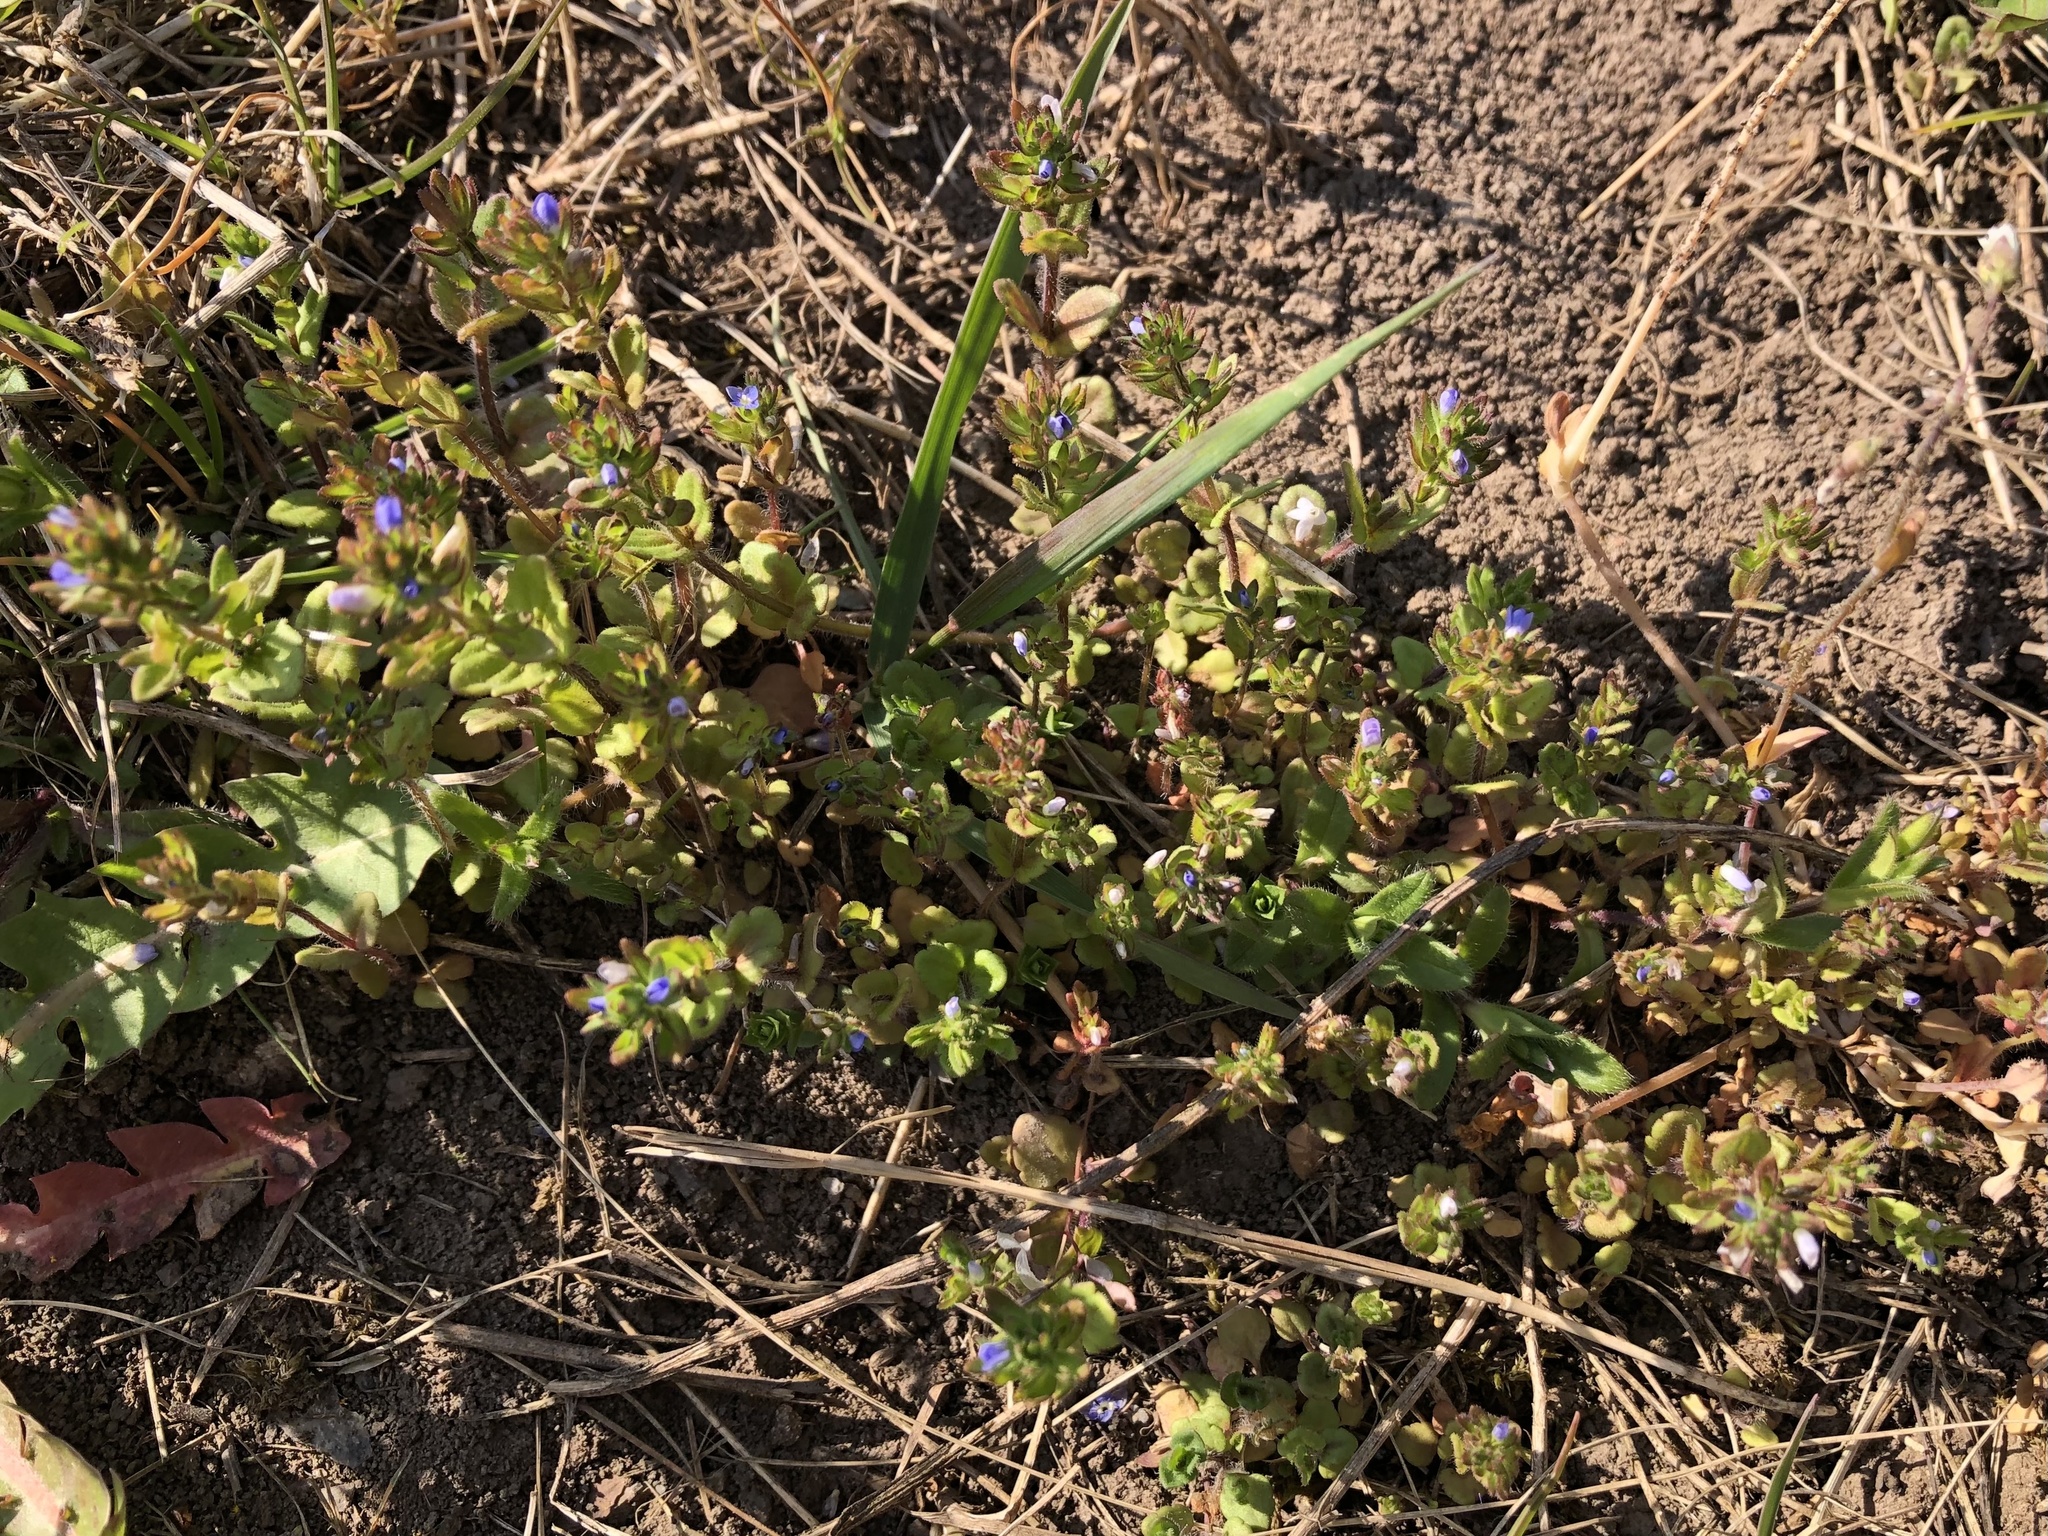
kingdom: Plantae
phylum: Tracheophyta
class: Magnoliopsida
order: Lamiales
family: Plantaginaceae
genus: Veronica
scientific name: Veronica arvensis
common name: Corn speedwell
